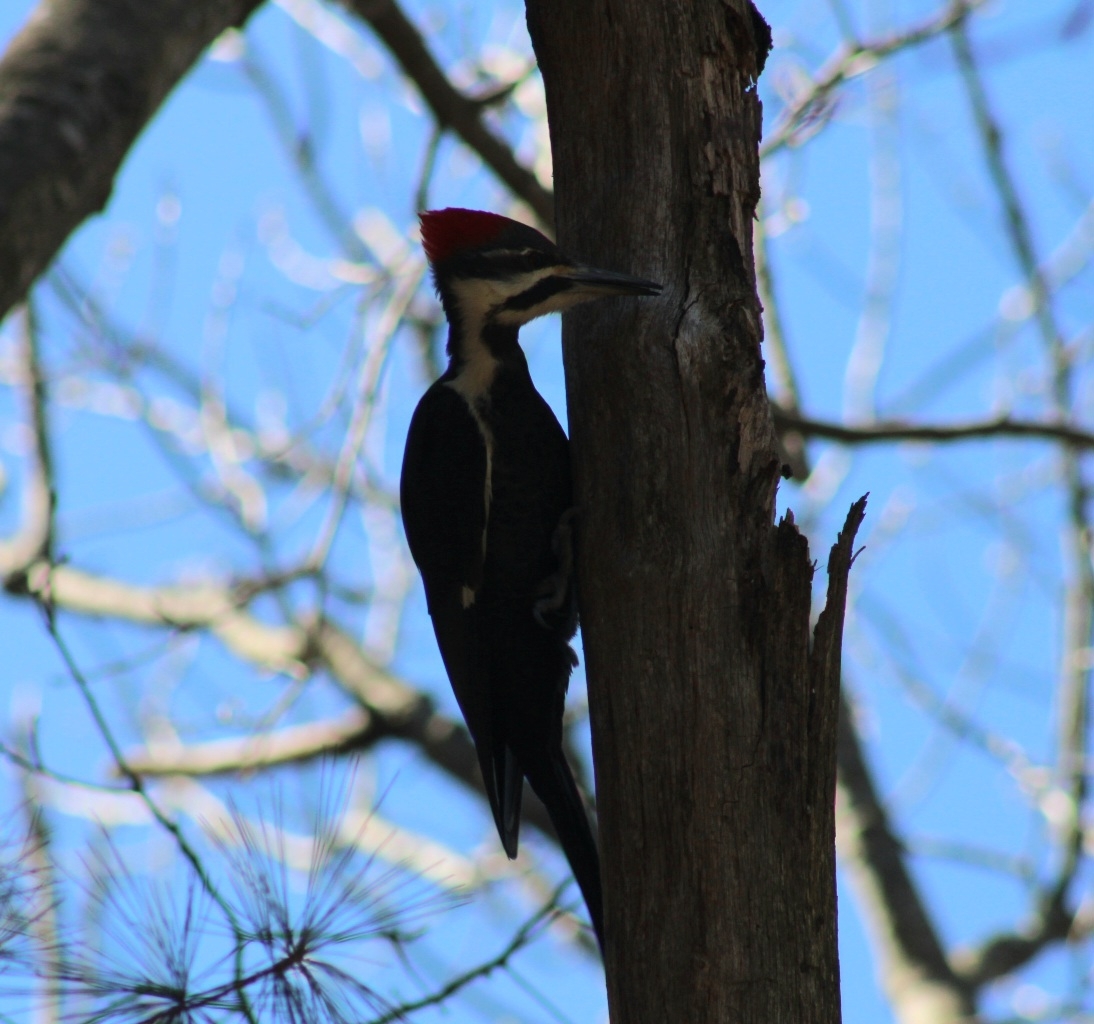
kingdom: Animalia
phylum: Chordata
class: Aves
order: Piciformes
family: Picidae
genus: Dryocopus
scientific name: Dryocopus pileatus
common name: Pileated woodpecker
